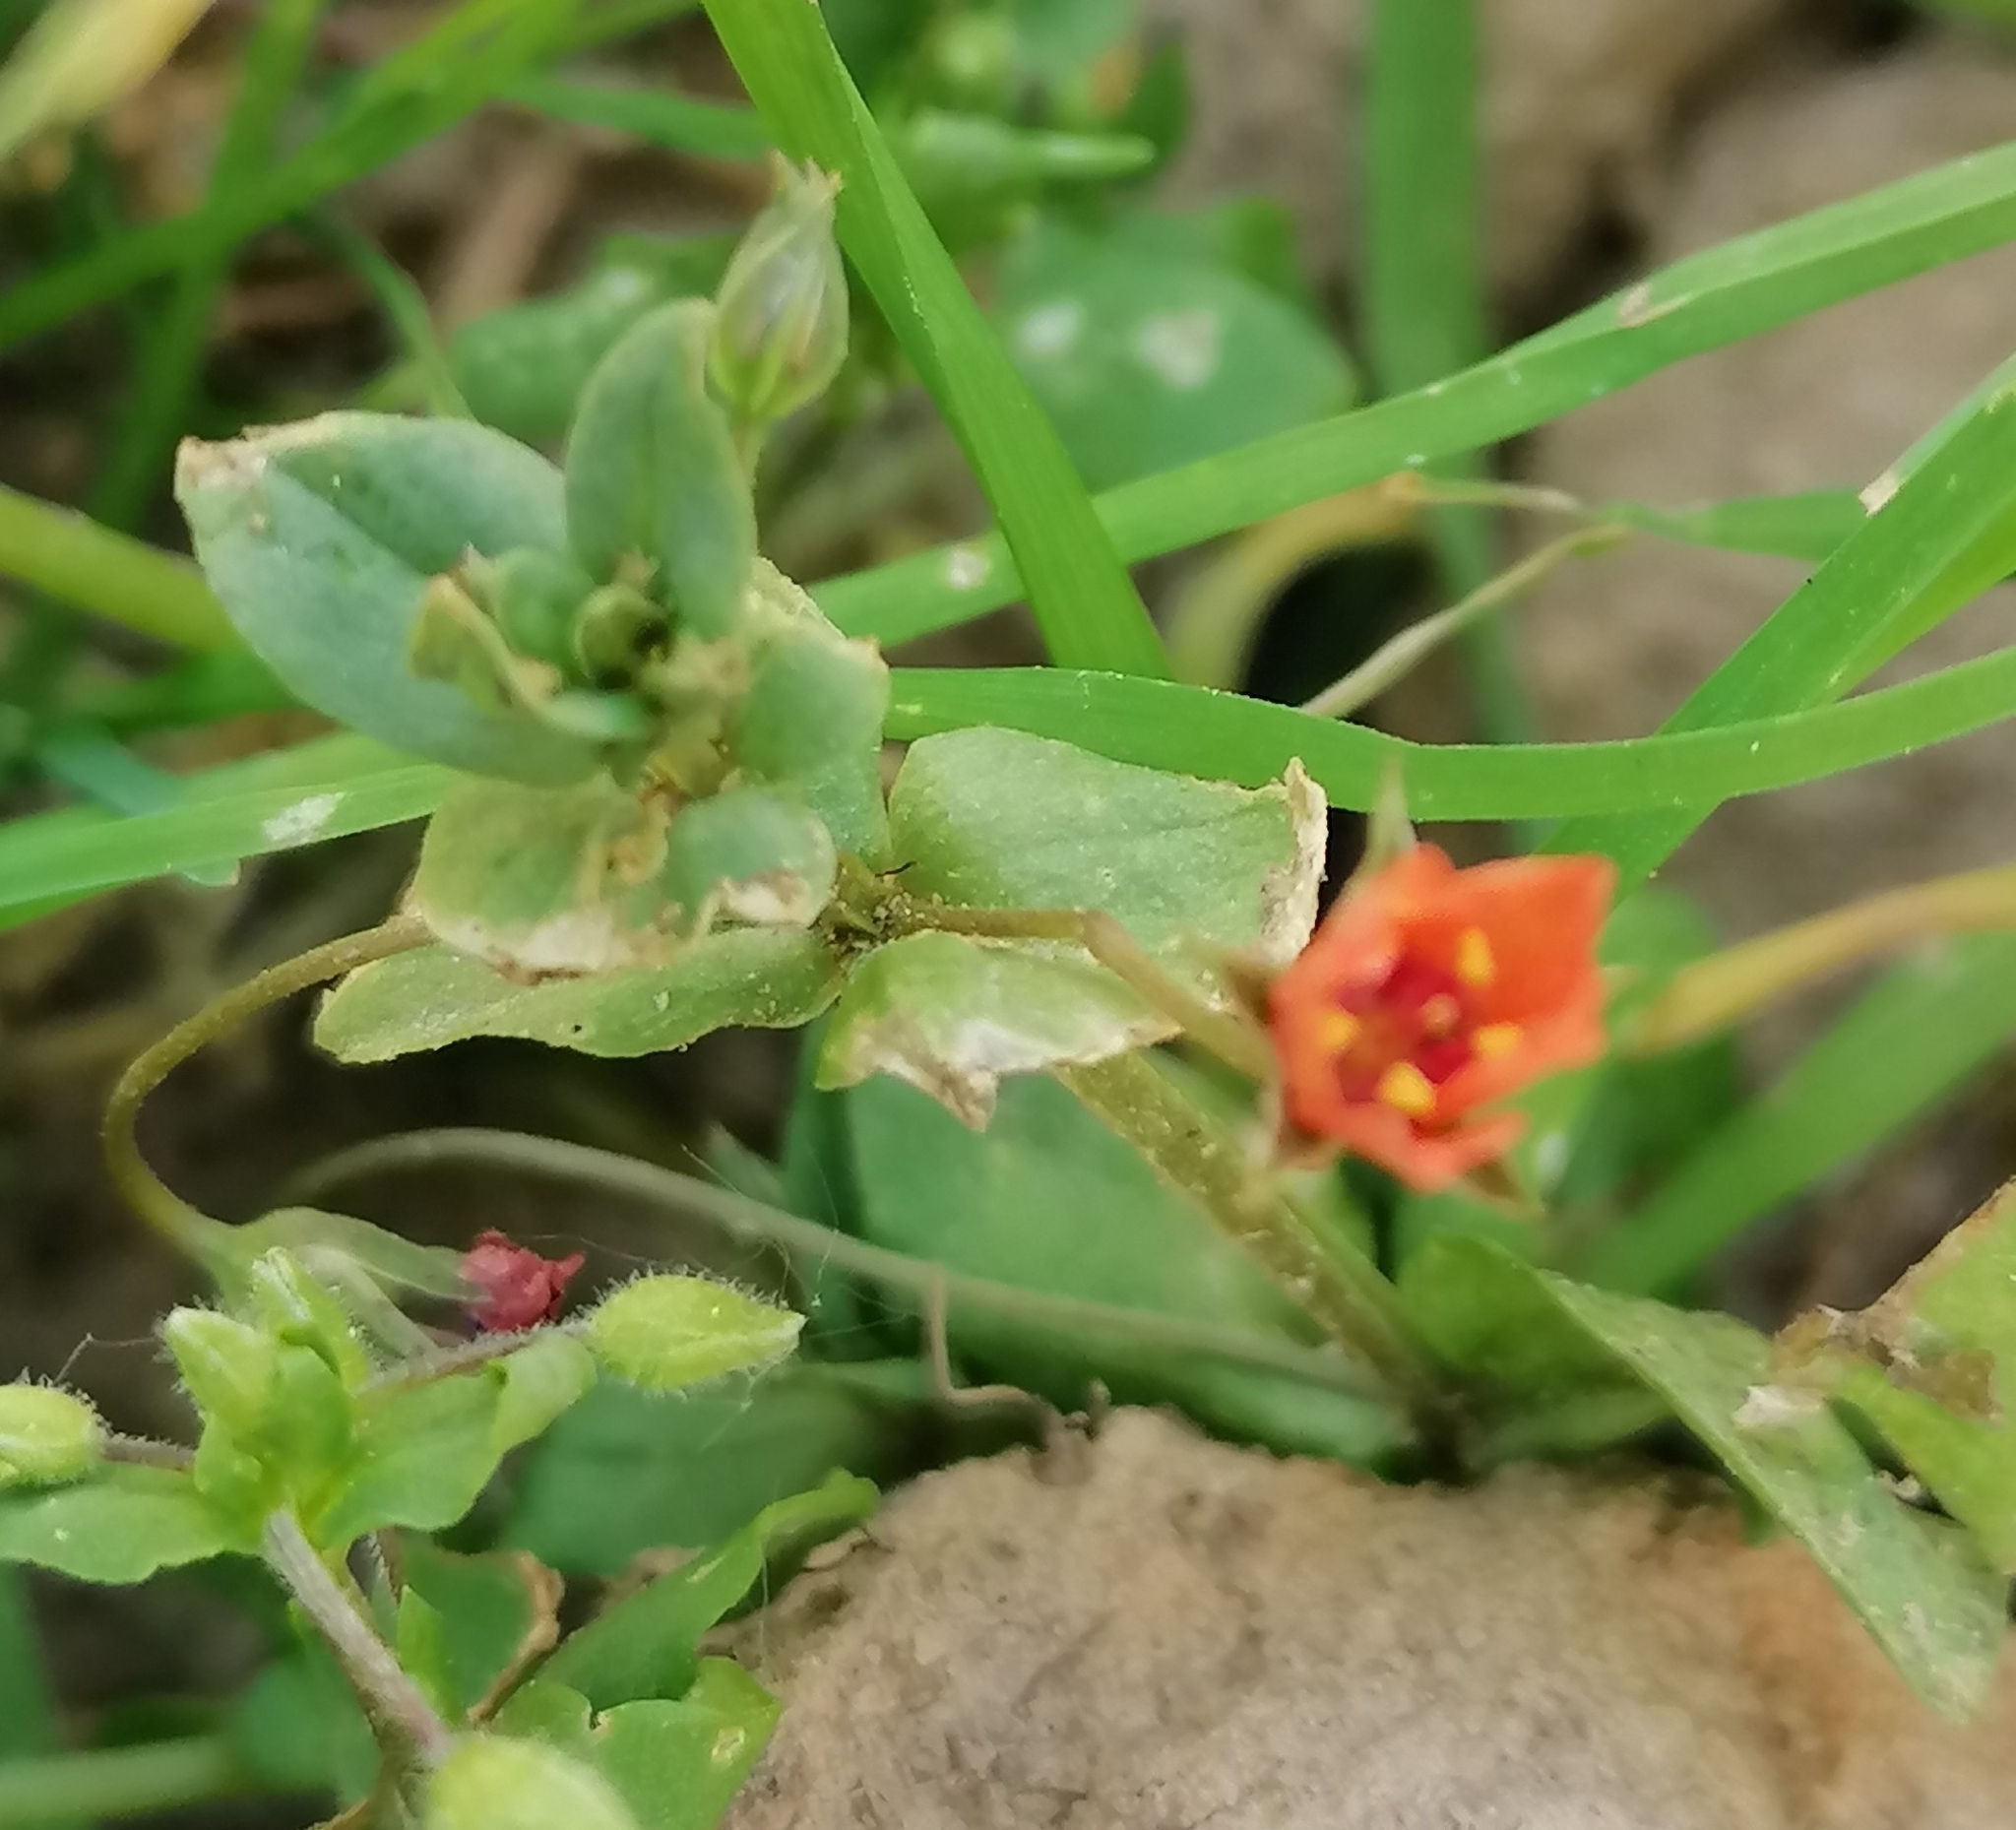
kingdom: Plantae
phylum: Tracheophyta
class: Magnoliopsida
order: Ericales
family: Primulaceae
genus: Lysimachia
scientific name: Lysimachia arvensis
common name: Scarlet pimpernel
